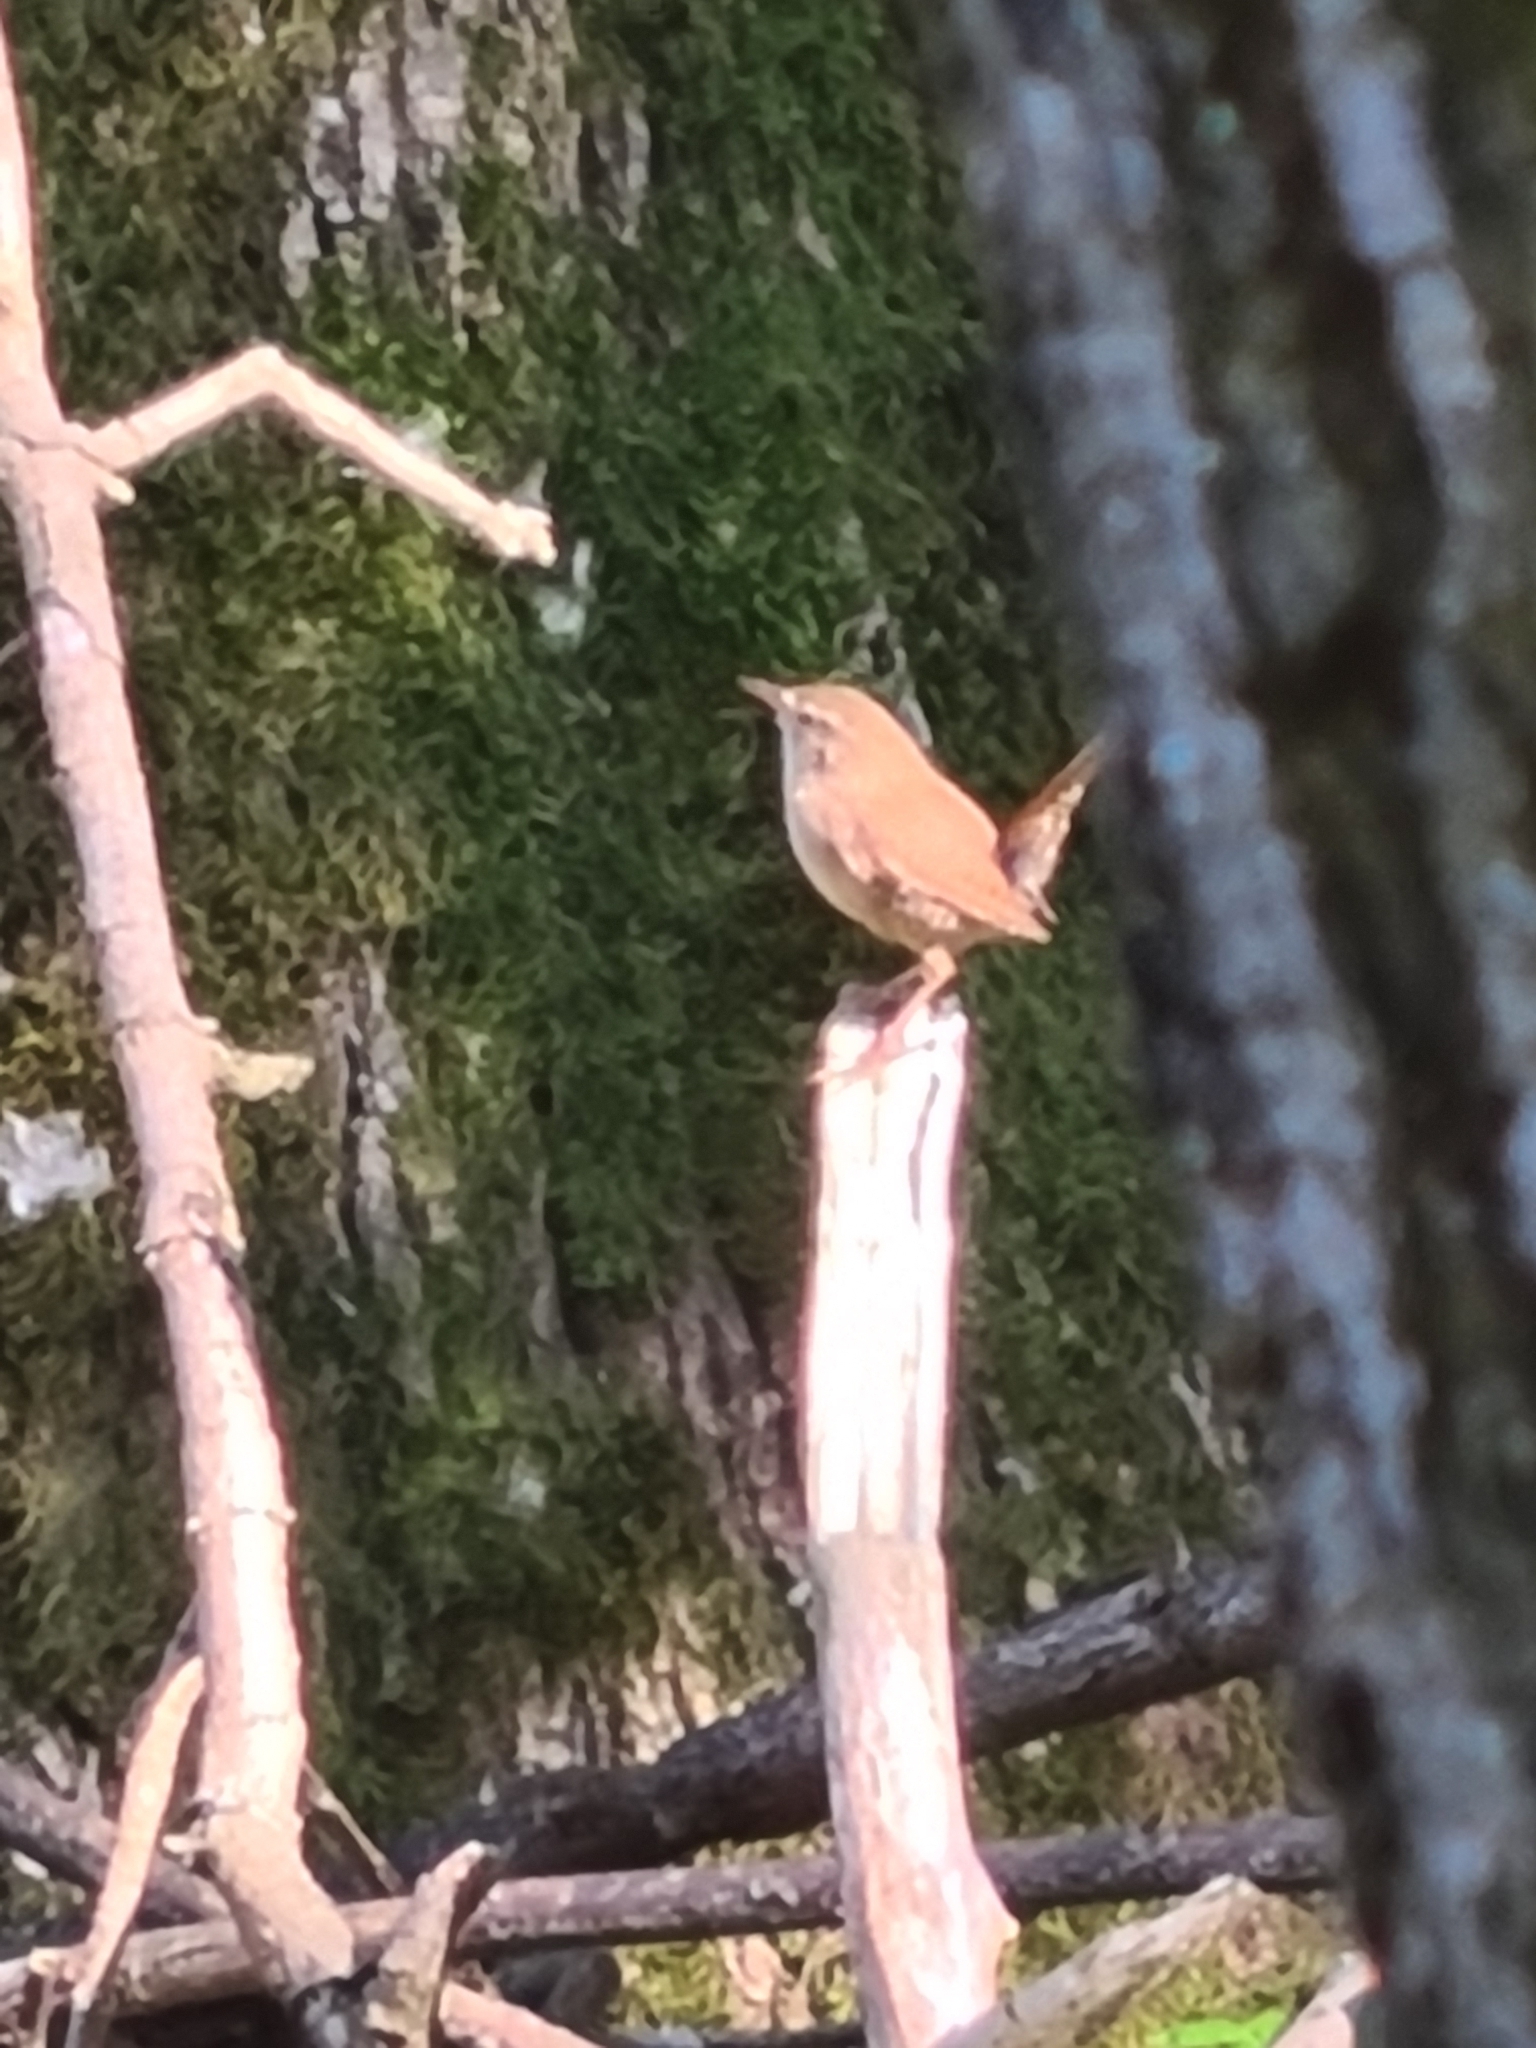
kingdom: Animalia
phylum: Chordata
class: Aves
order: Passeriformes
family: Troglodytidae
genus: Troglodytes
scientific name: Troglodytes troglodytes
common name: Eurasian wren
